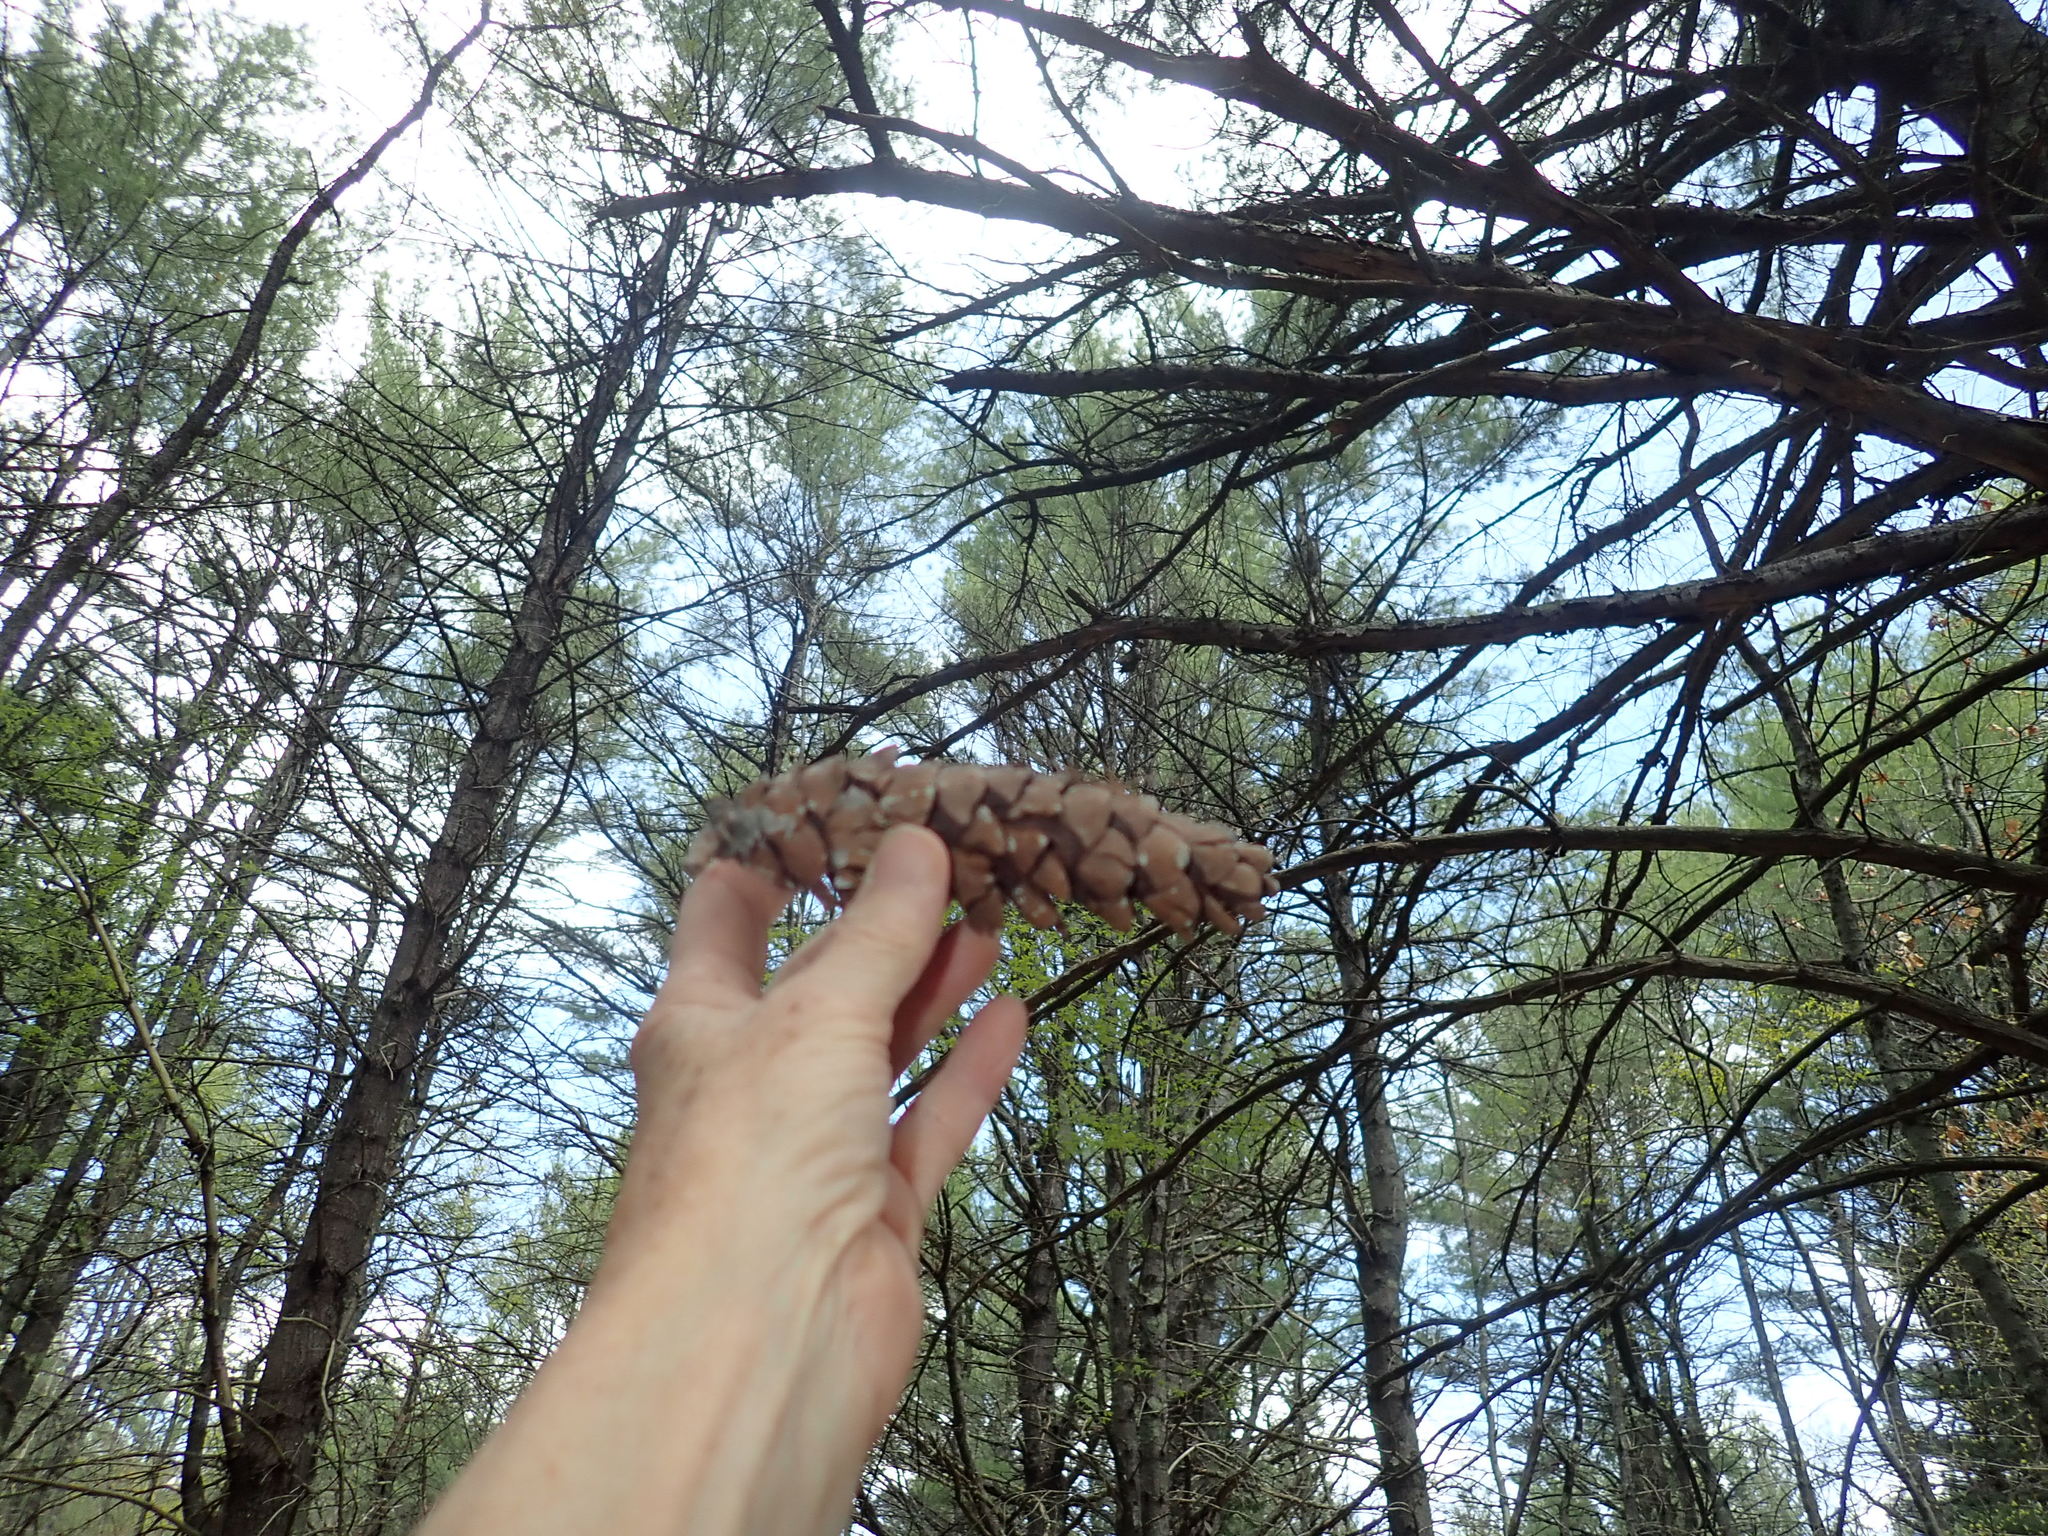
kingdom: Plantae
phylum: Tracheophyta
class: Pinopsida
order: Pinales
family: Pinaceae
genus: Pinus
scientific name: Pinus strobus
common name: Weymouth pine
